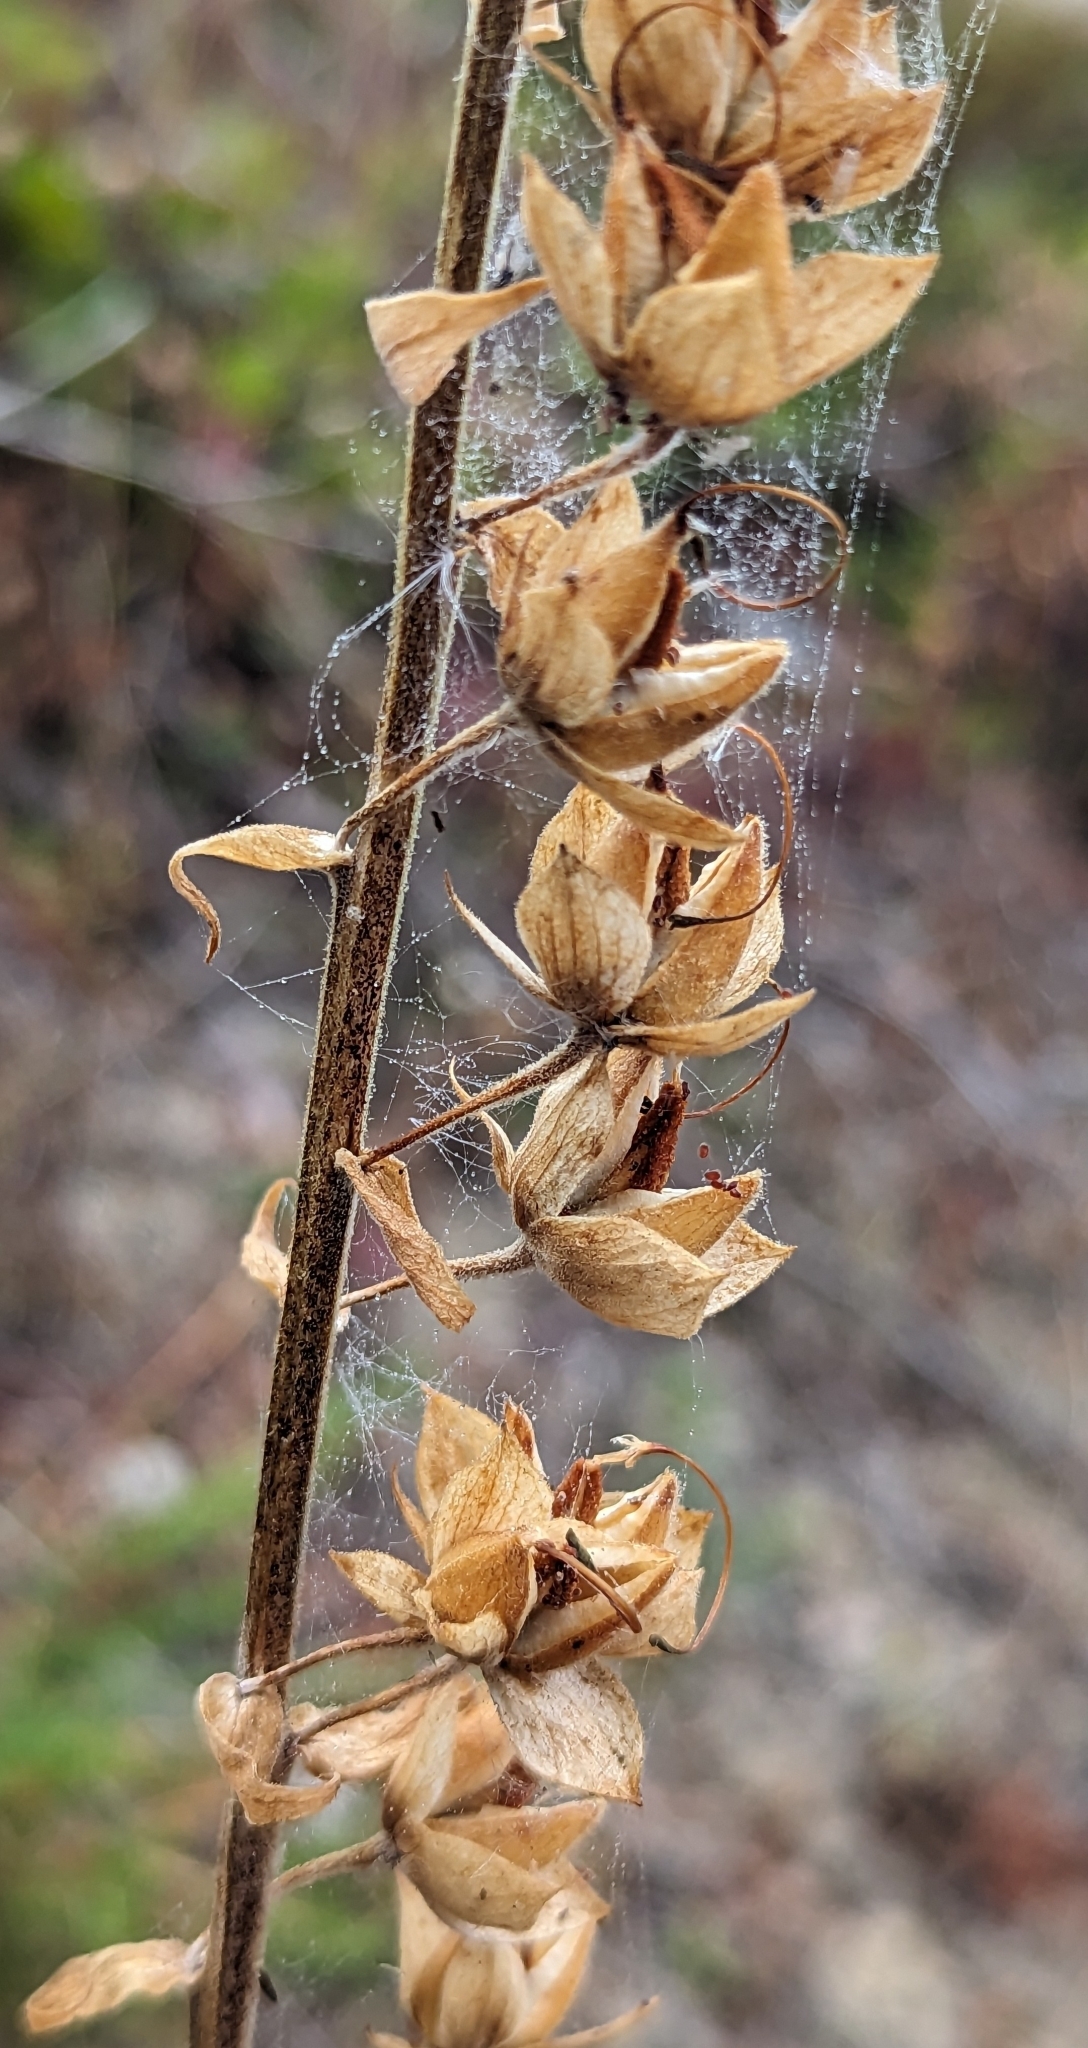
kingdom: Plantae
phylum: Tracheophyta
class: Magnoliopsida
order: Lamiales
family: Plantaginaceae
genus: Digitalis
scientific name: Digitalis purpurea
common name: Foxglove
